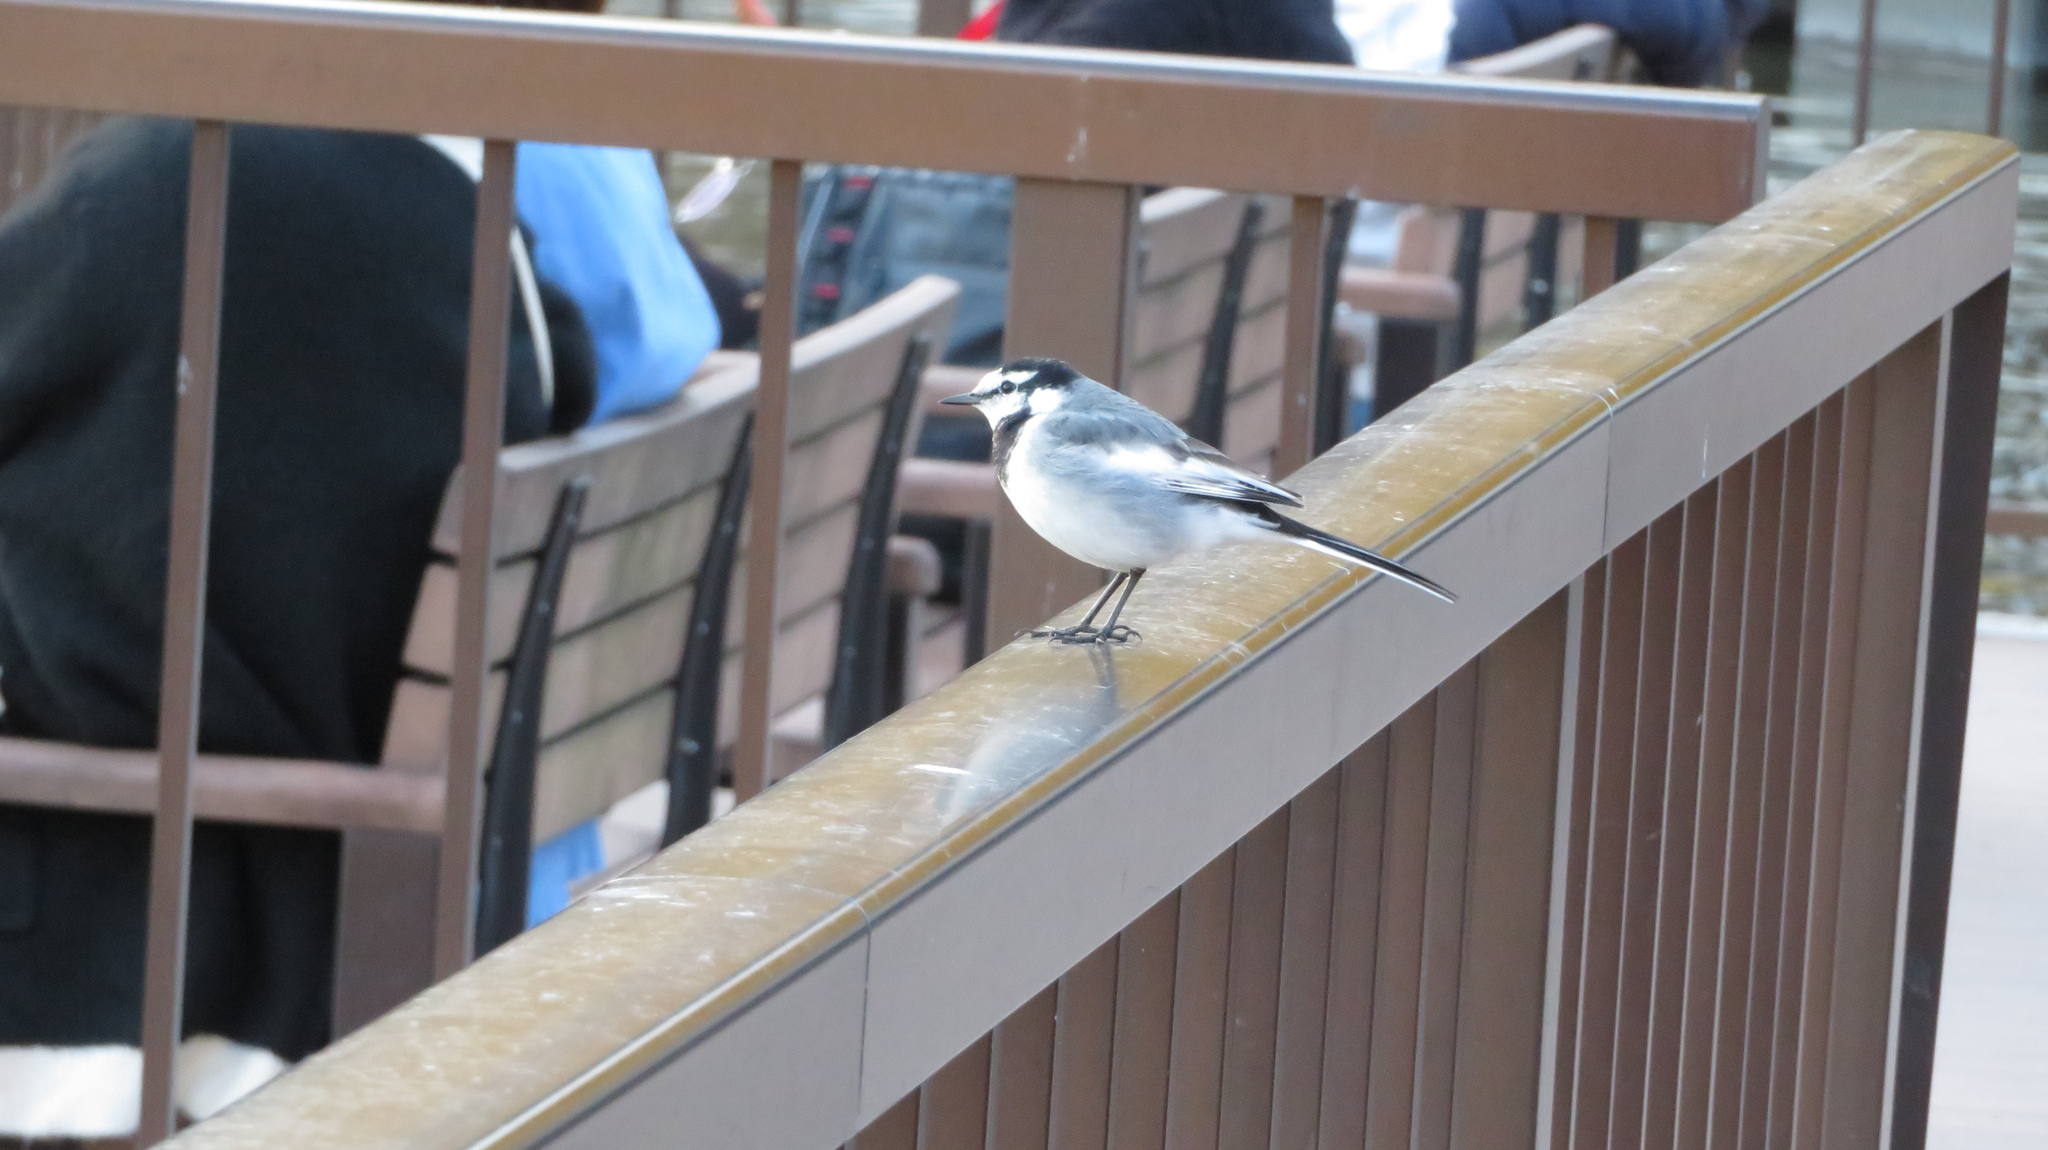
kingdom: Animalia
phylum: Chordata
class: Aves
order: Passeriformes
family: Motacillidae
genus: Motacilla
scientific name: Motacilla alba
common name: White wagtail
